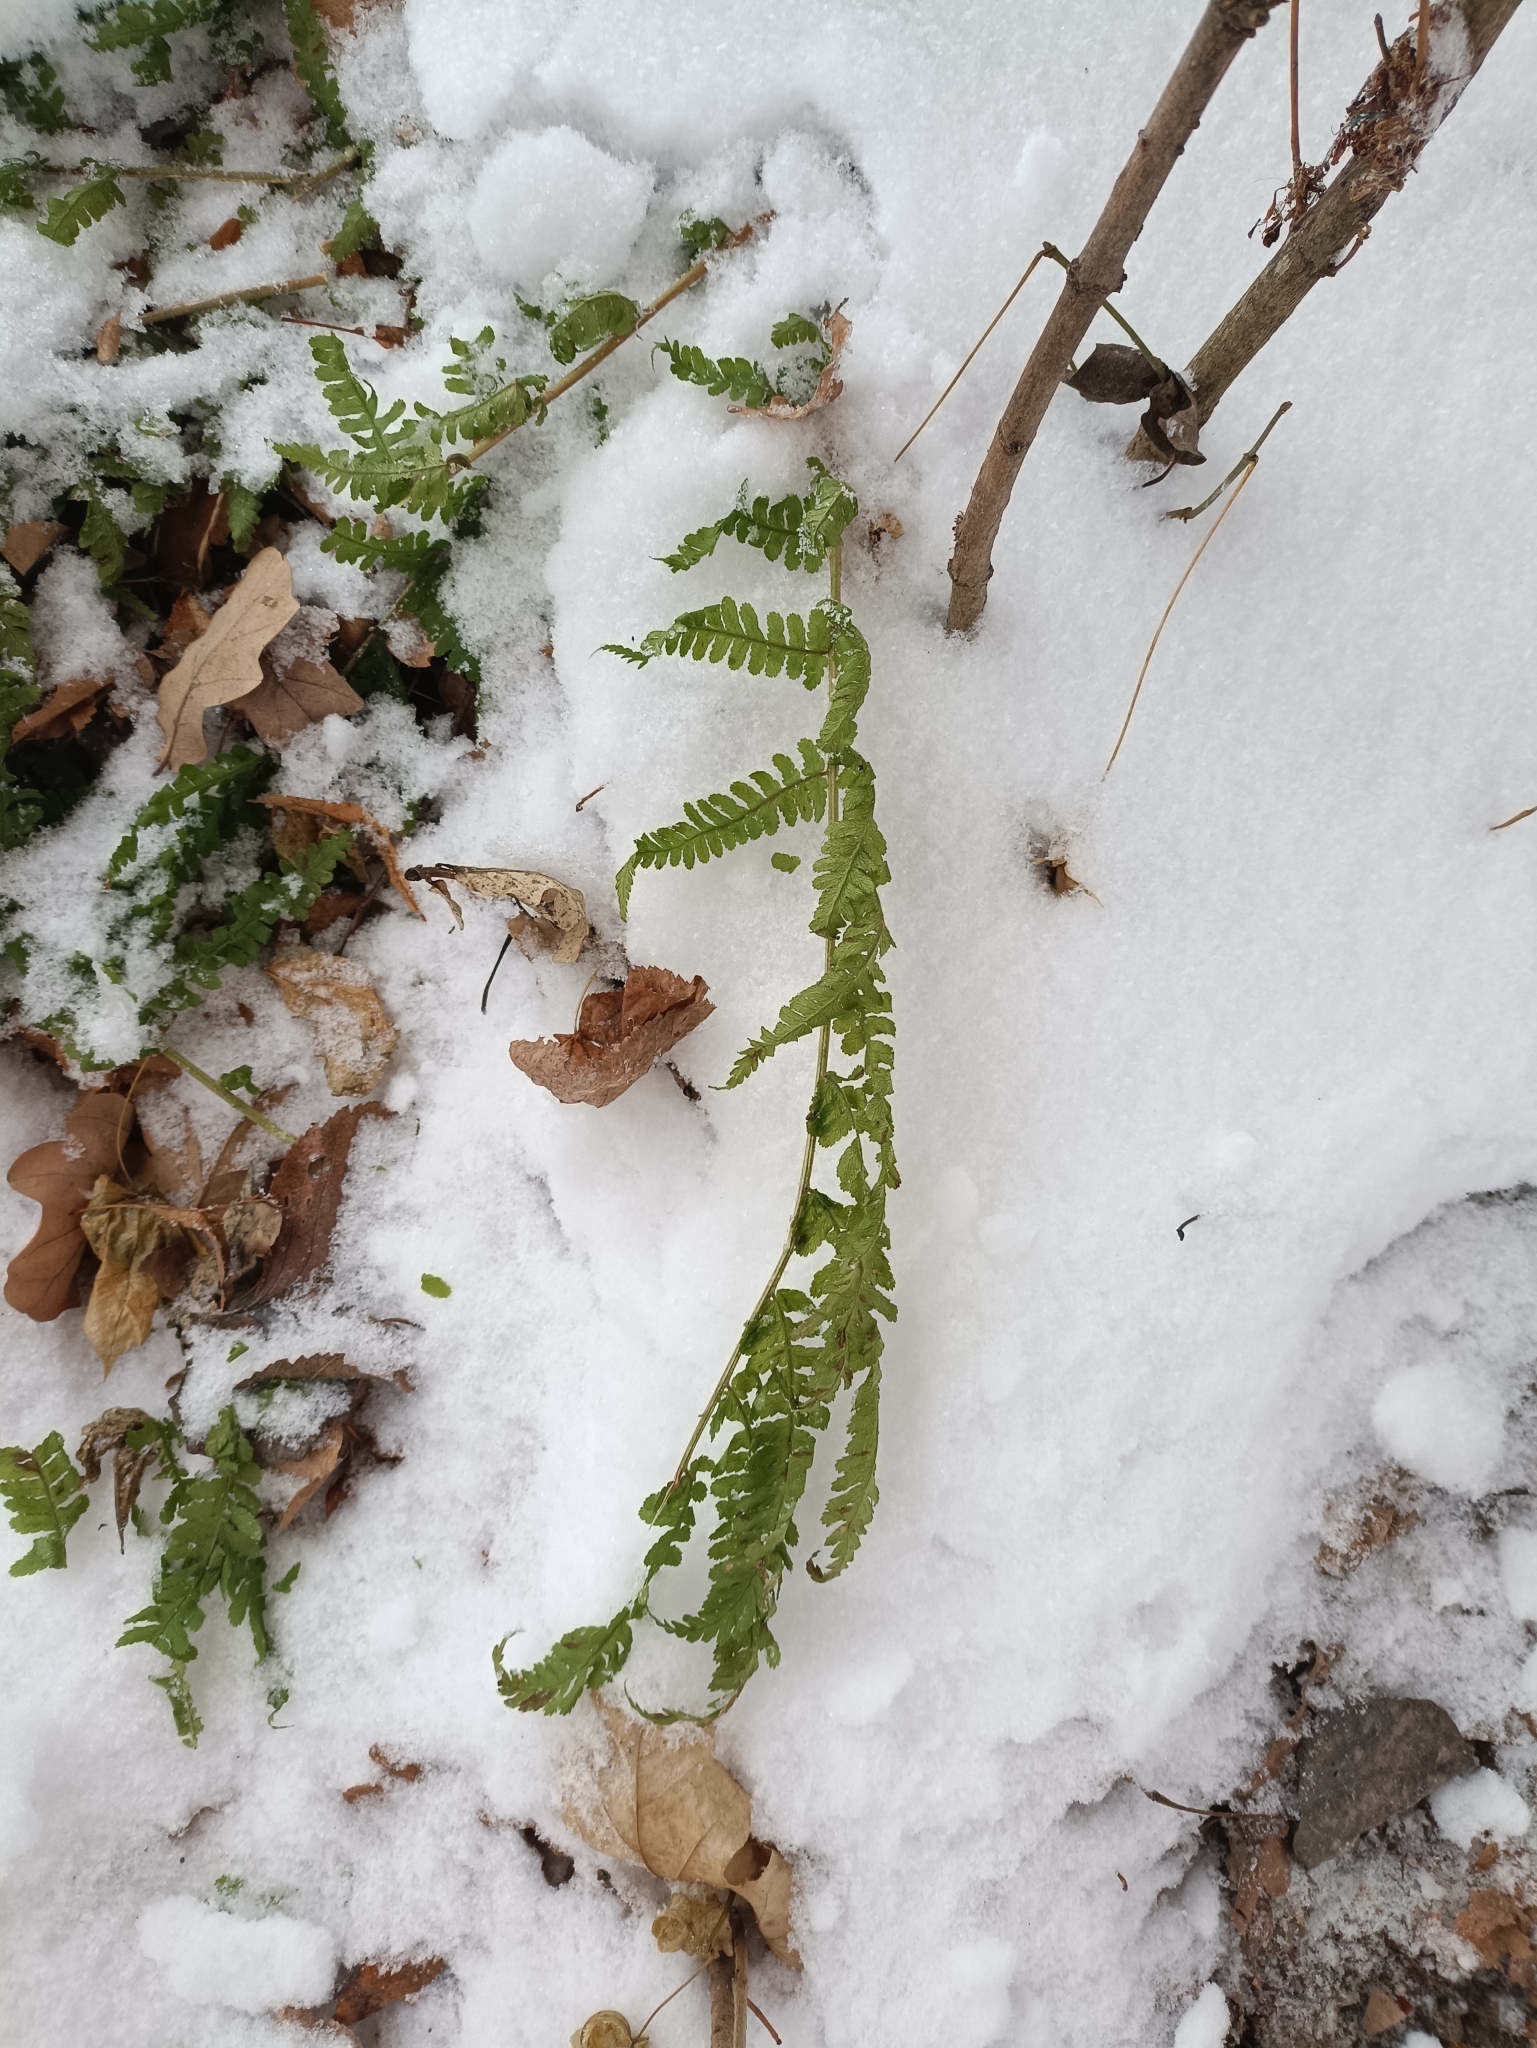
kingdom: Plantae
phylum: Tracheophyta
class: Polypodiopsida
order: Polypodiales
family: Dryopteridaceae
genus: Dryopteris
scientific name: Dryopteris filix-mas
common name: Male fern
